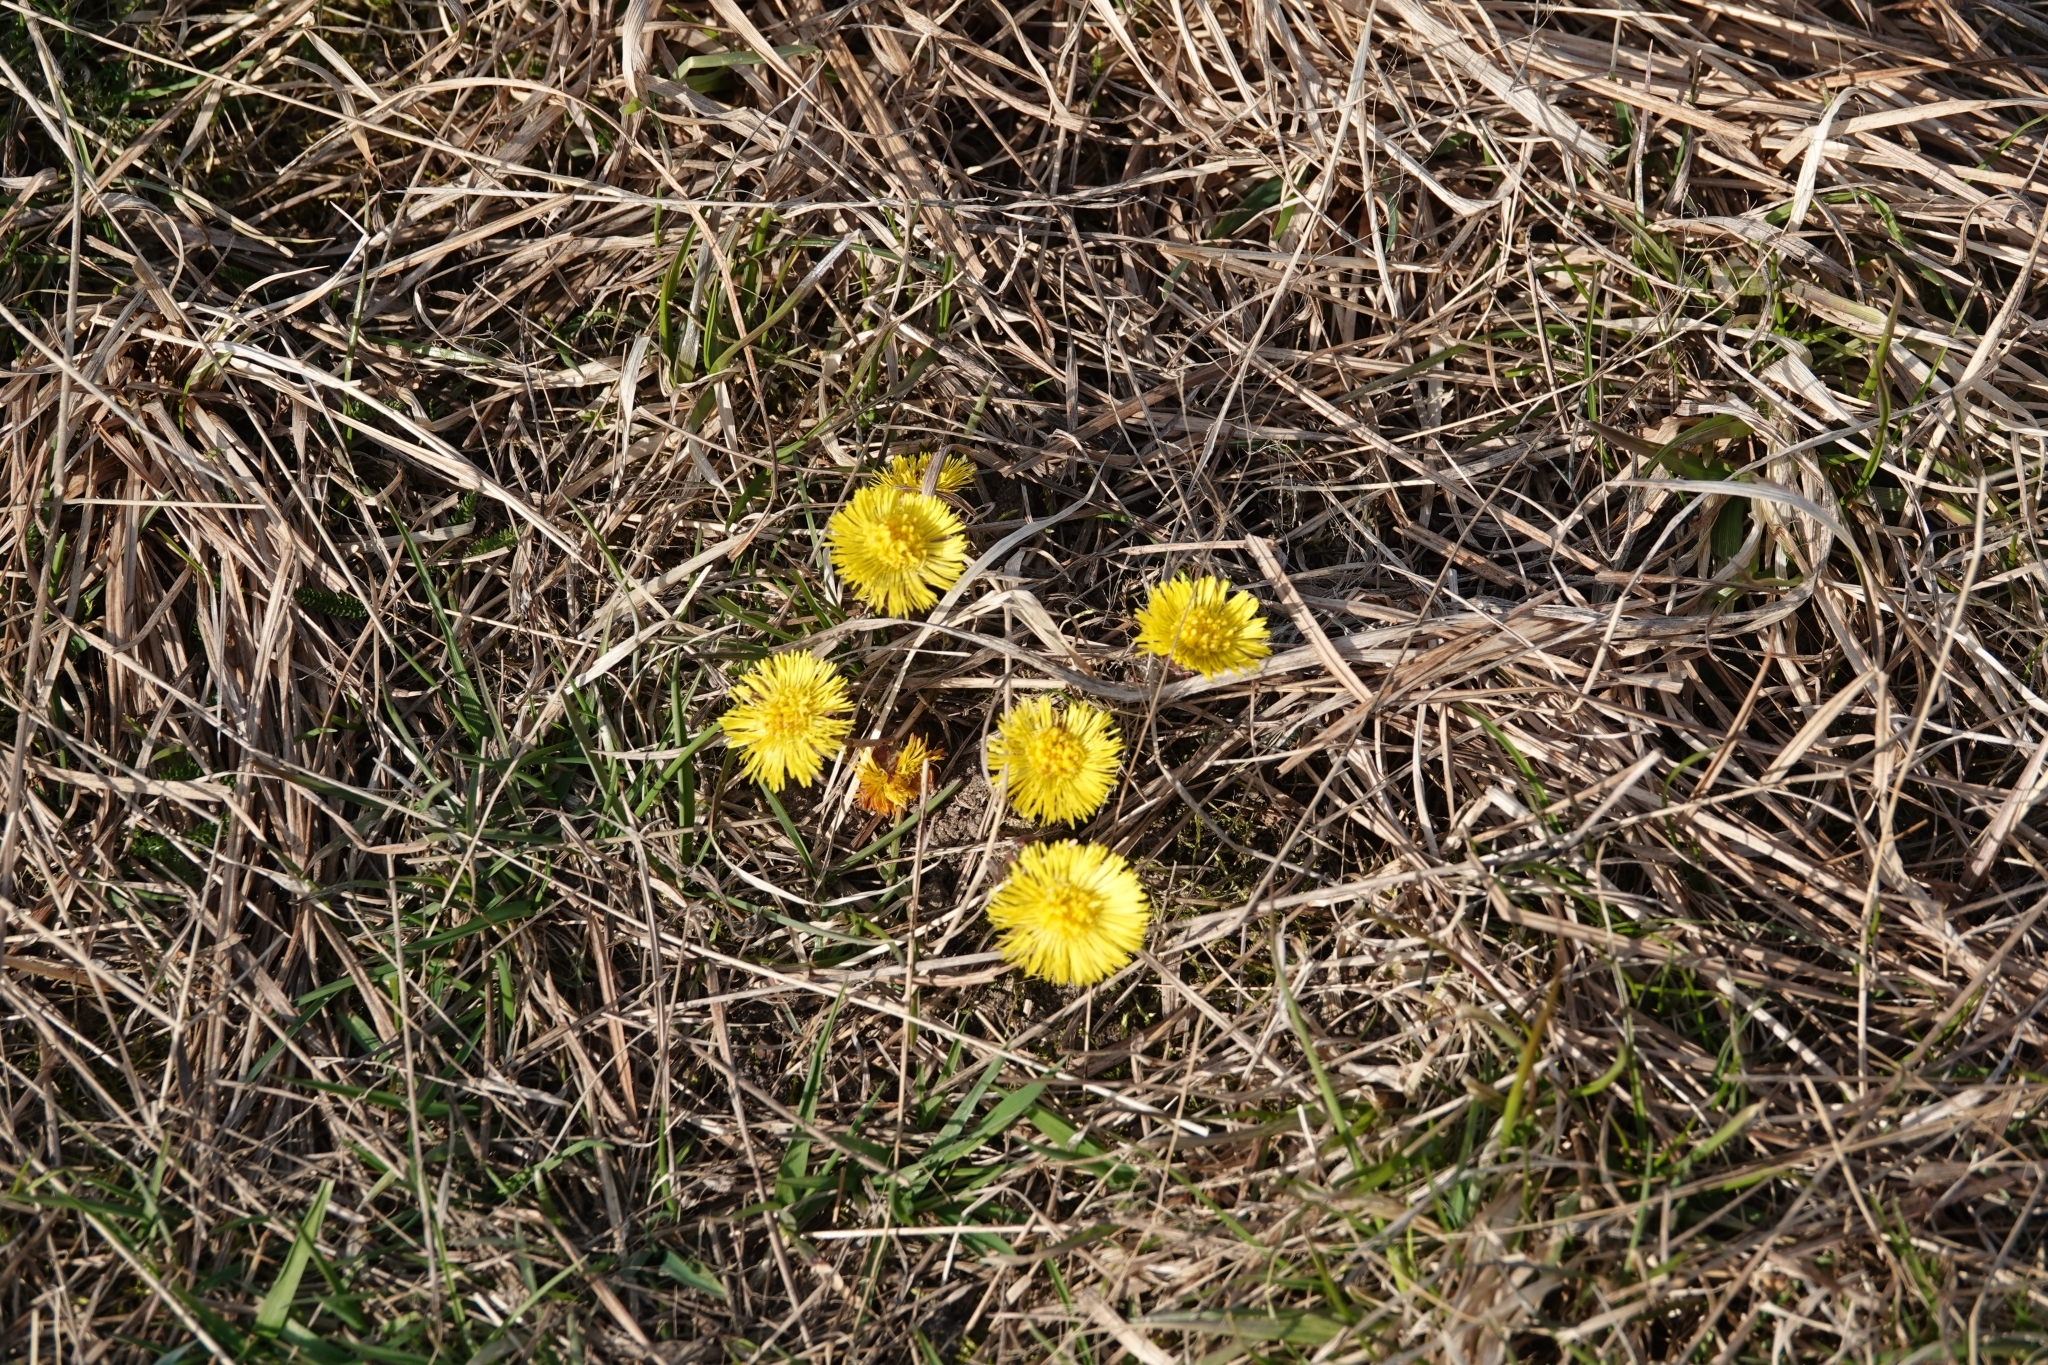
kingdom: Plantae
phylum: Tracheophyta
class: Magnoliopsida
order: Asterales
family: Asteraceae
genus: Tussilago
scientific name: Tussilago farfara
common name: Coltsfoot
